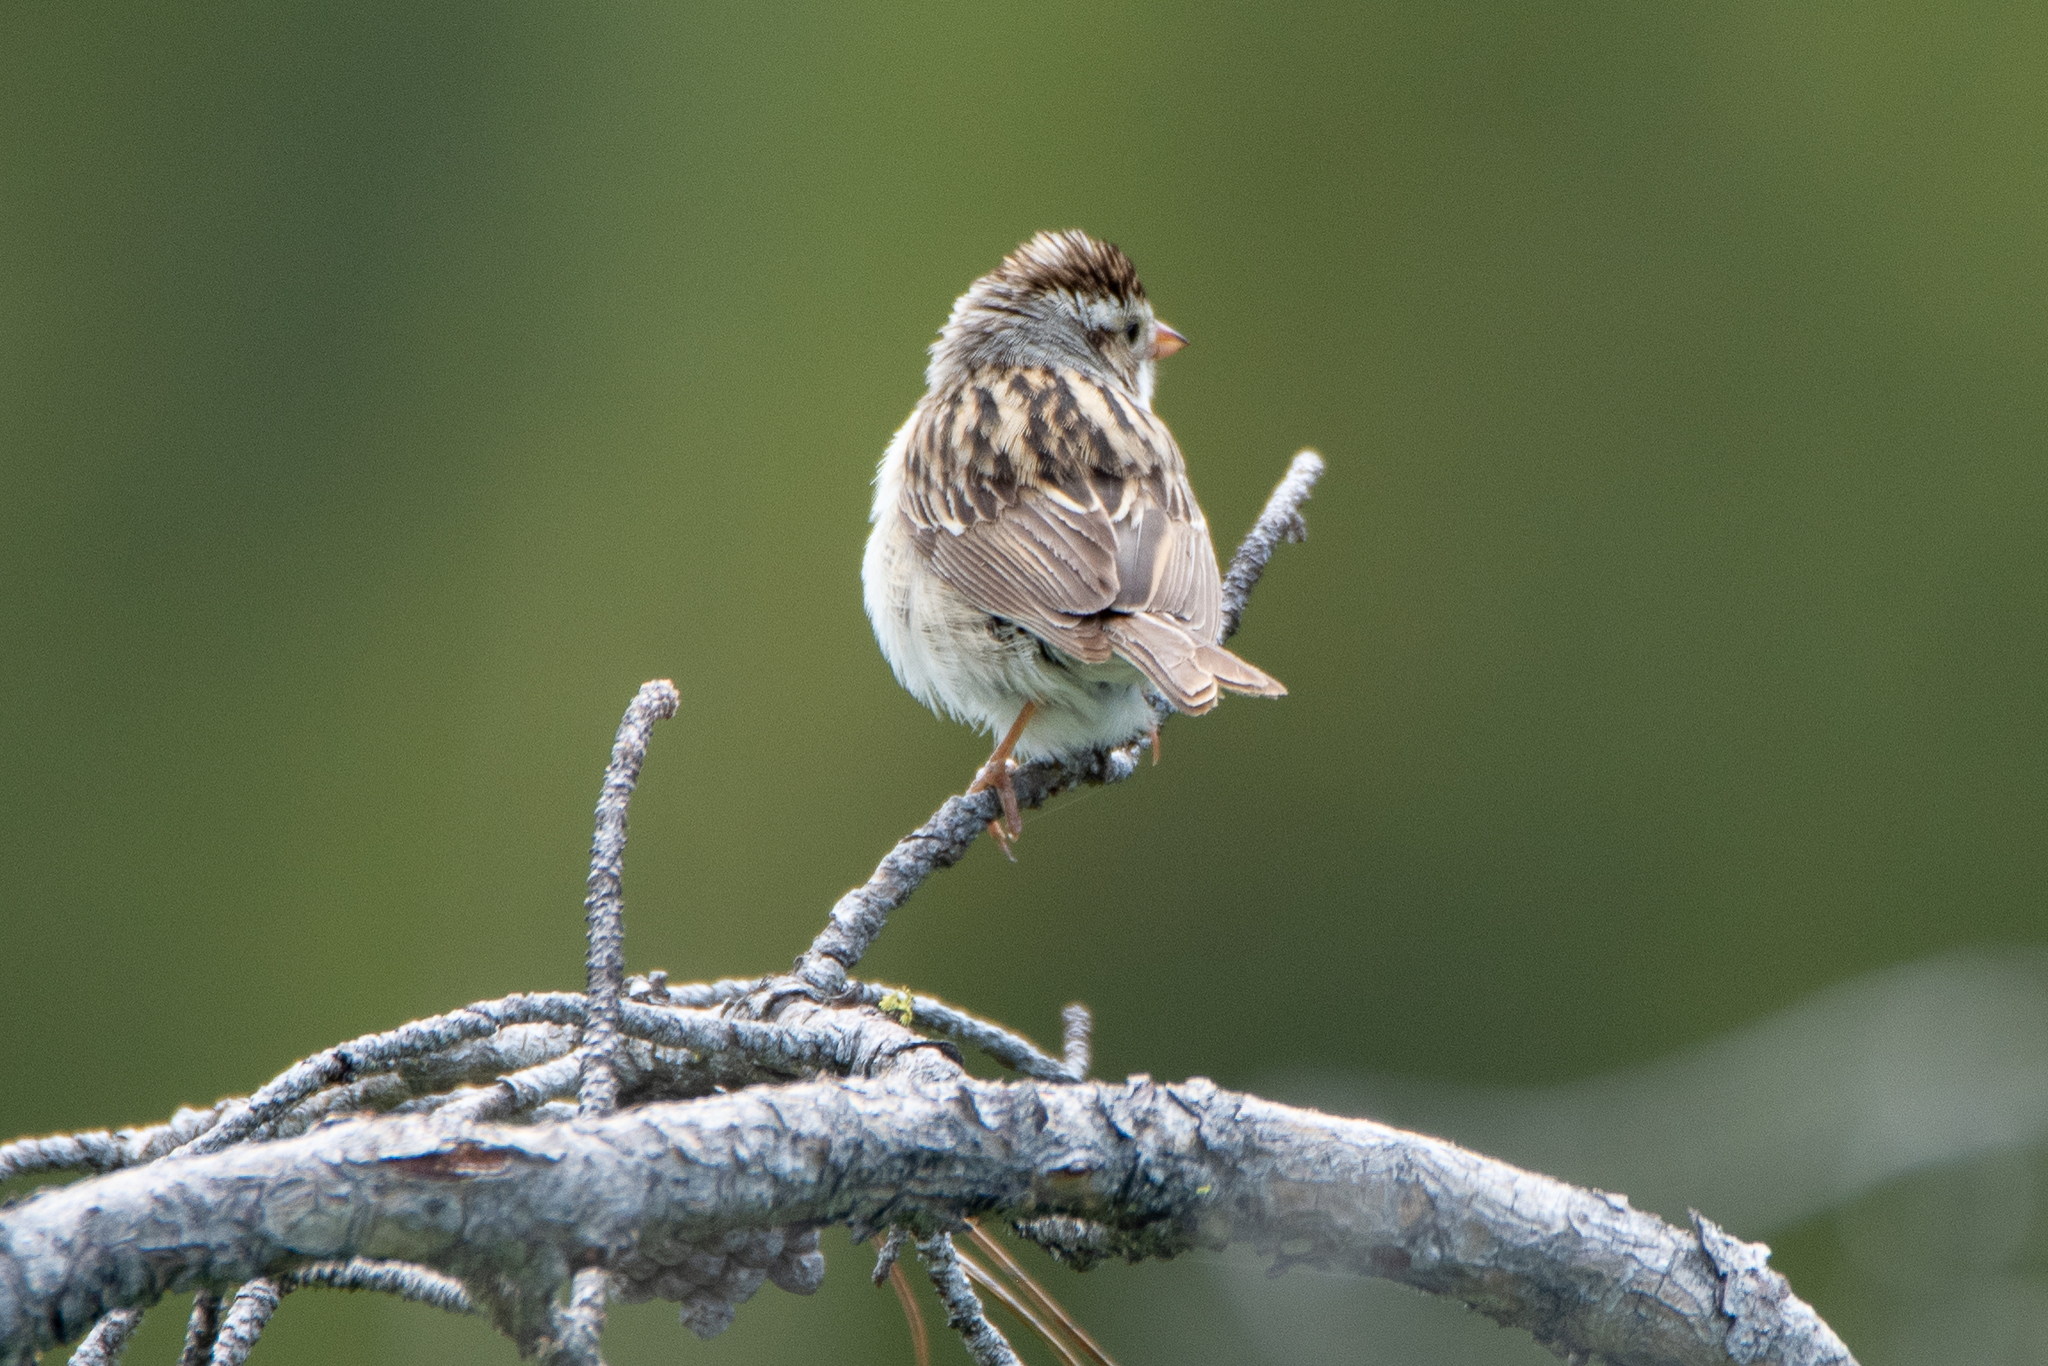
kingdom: Animalia
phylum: Chordata
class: Aves
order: Passeriformes
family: Passerellidae
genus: Spizella
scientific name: Spizella passerina
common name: Chipping sparrow
